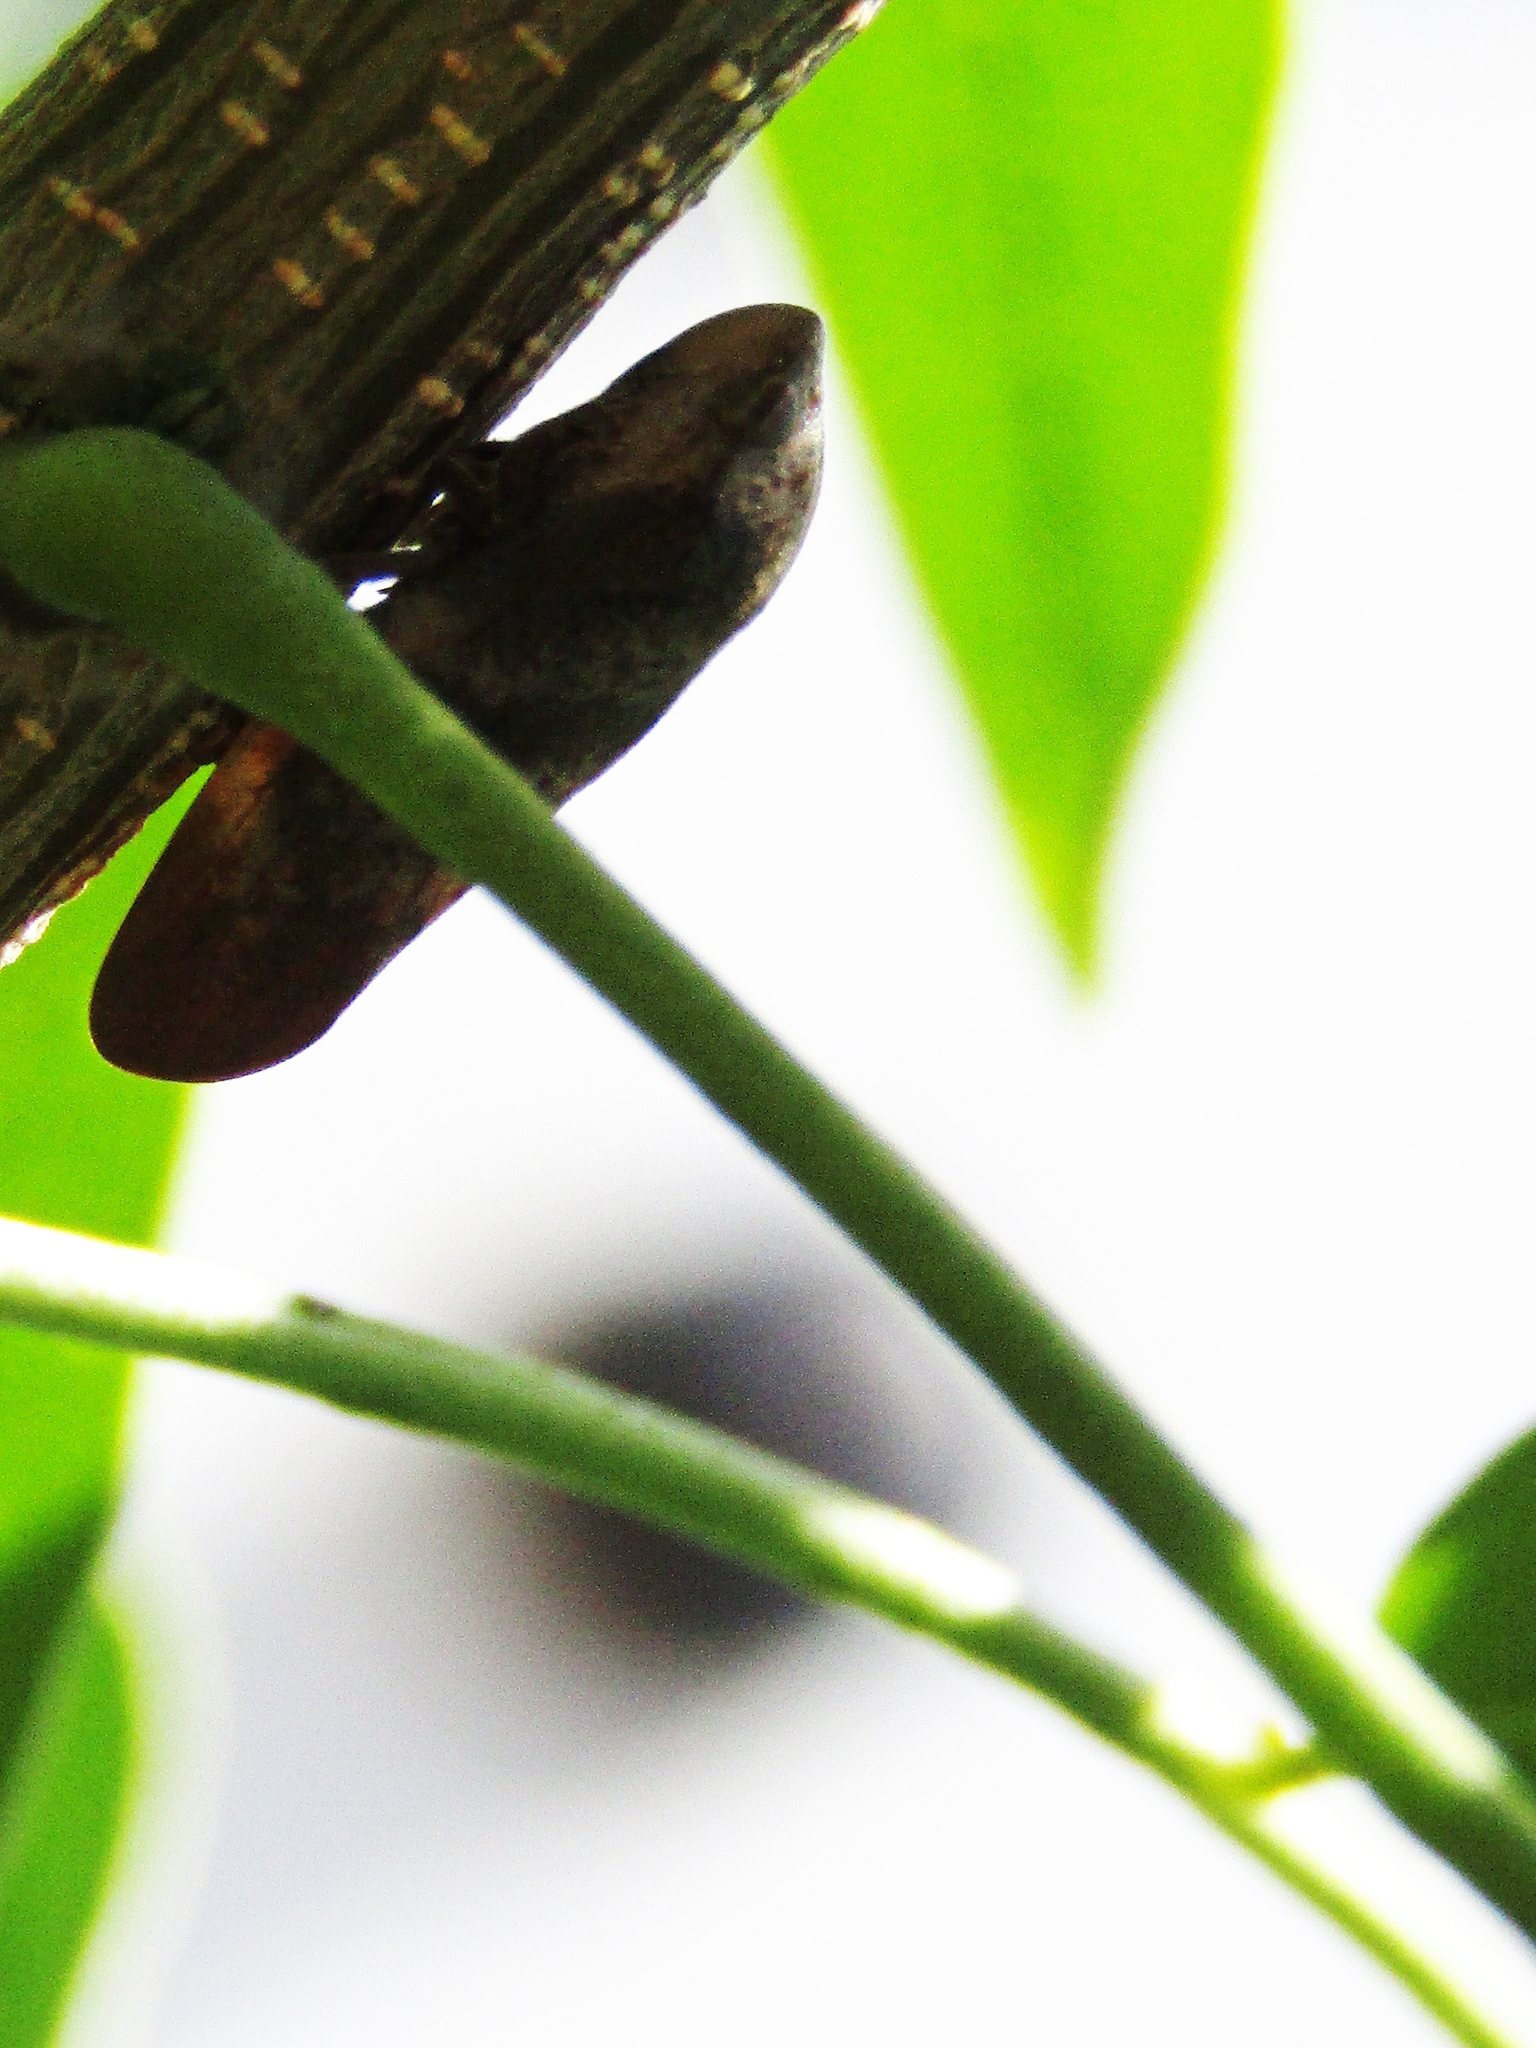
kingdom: Animalia
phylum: Arthropoda
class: Insecta
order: Hemiptera
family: Aphrophoridae
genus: Cephisus
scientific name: Cephisus siccifolius
